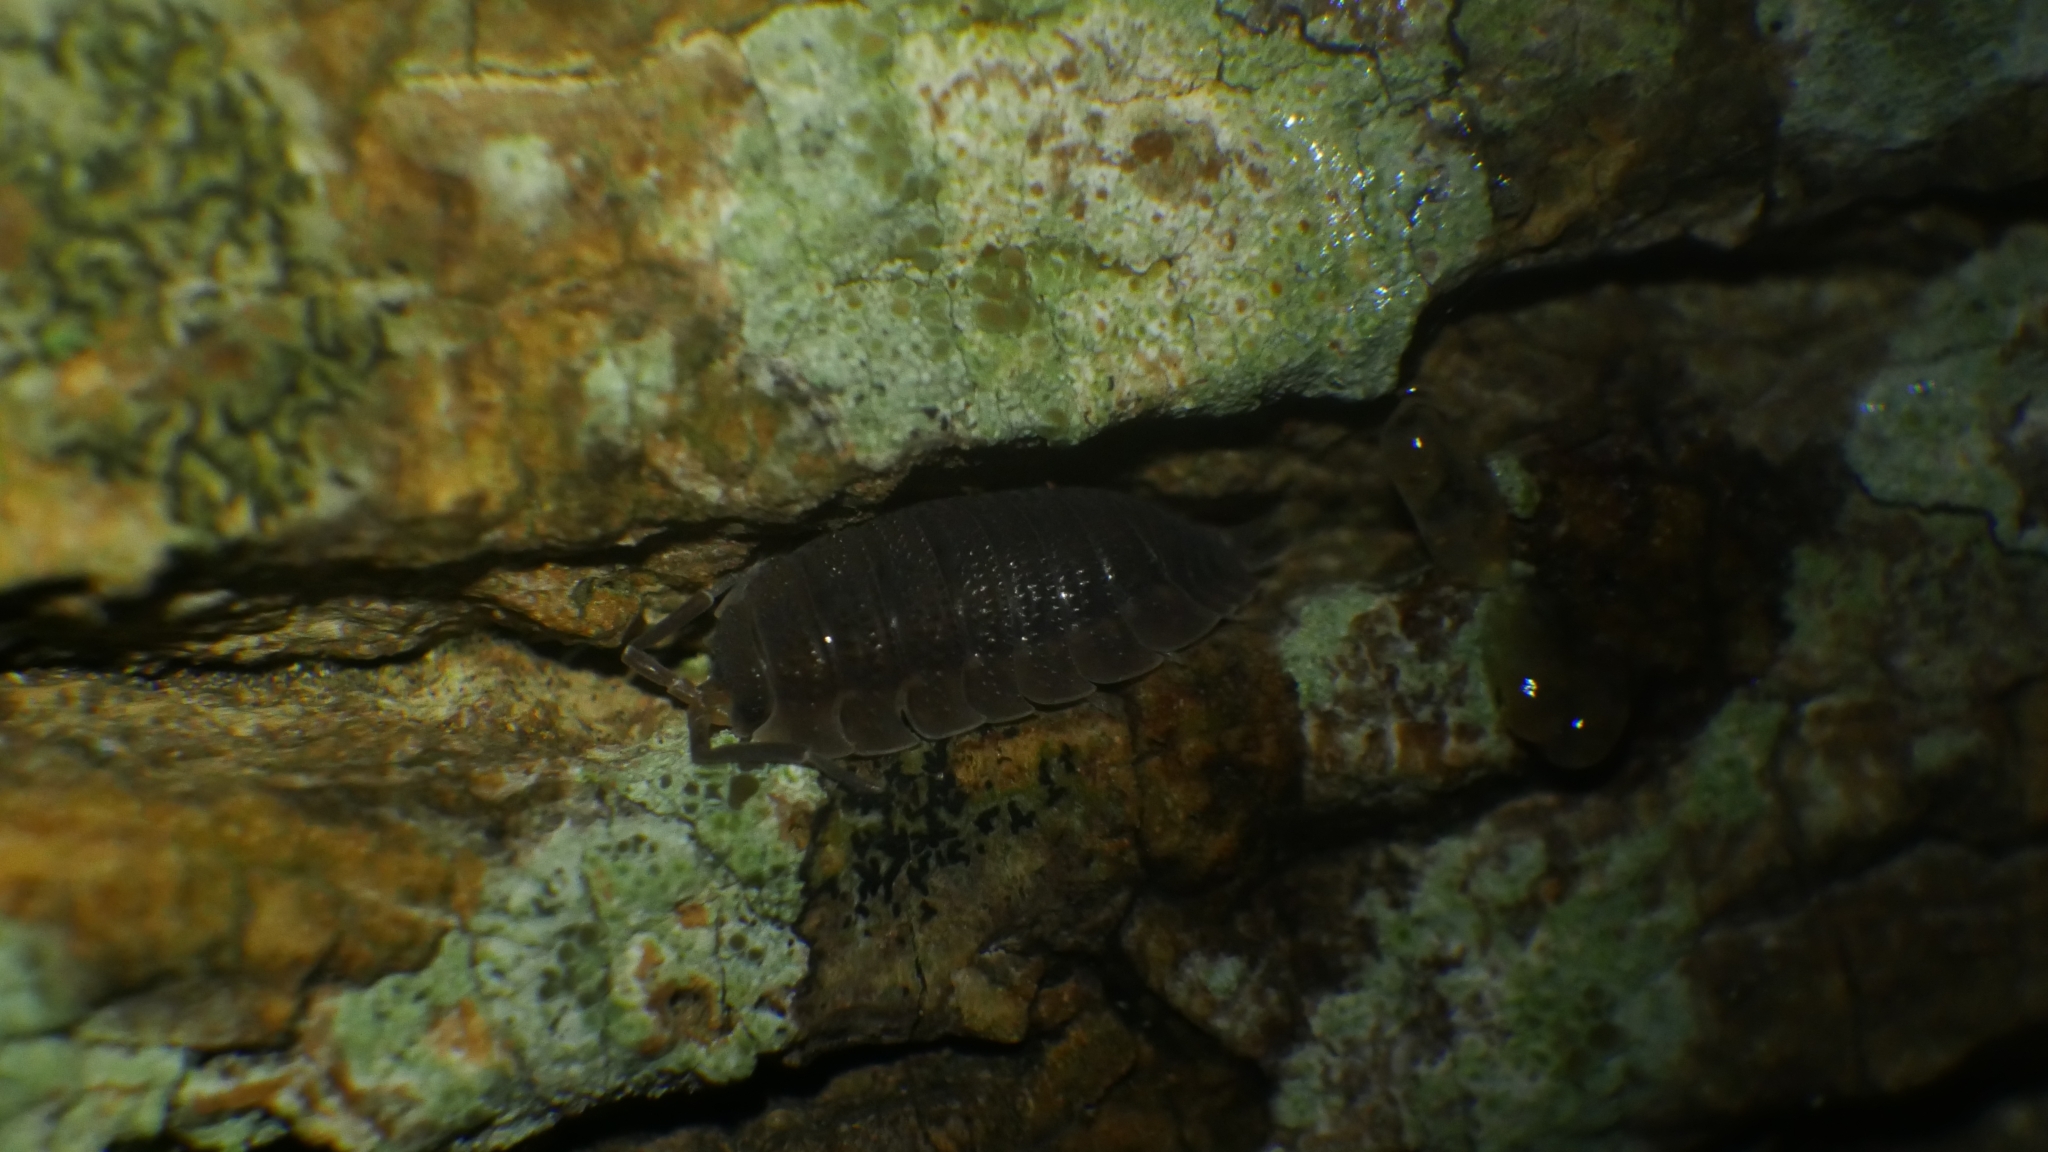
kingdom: Animalia
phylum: Arthropoda
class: Malacostraca
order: Isopoda
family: Porcellionidae
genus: Porcellio
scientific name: Porcellio scaber
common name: Common rough woodlouse
